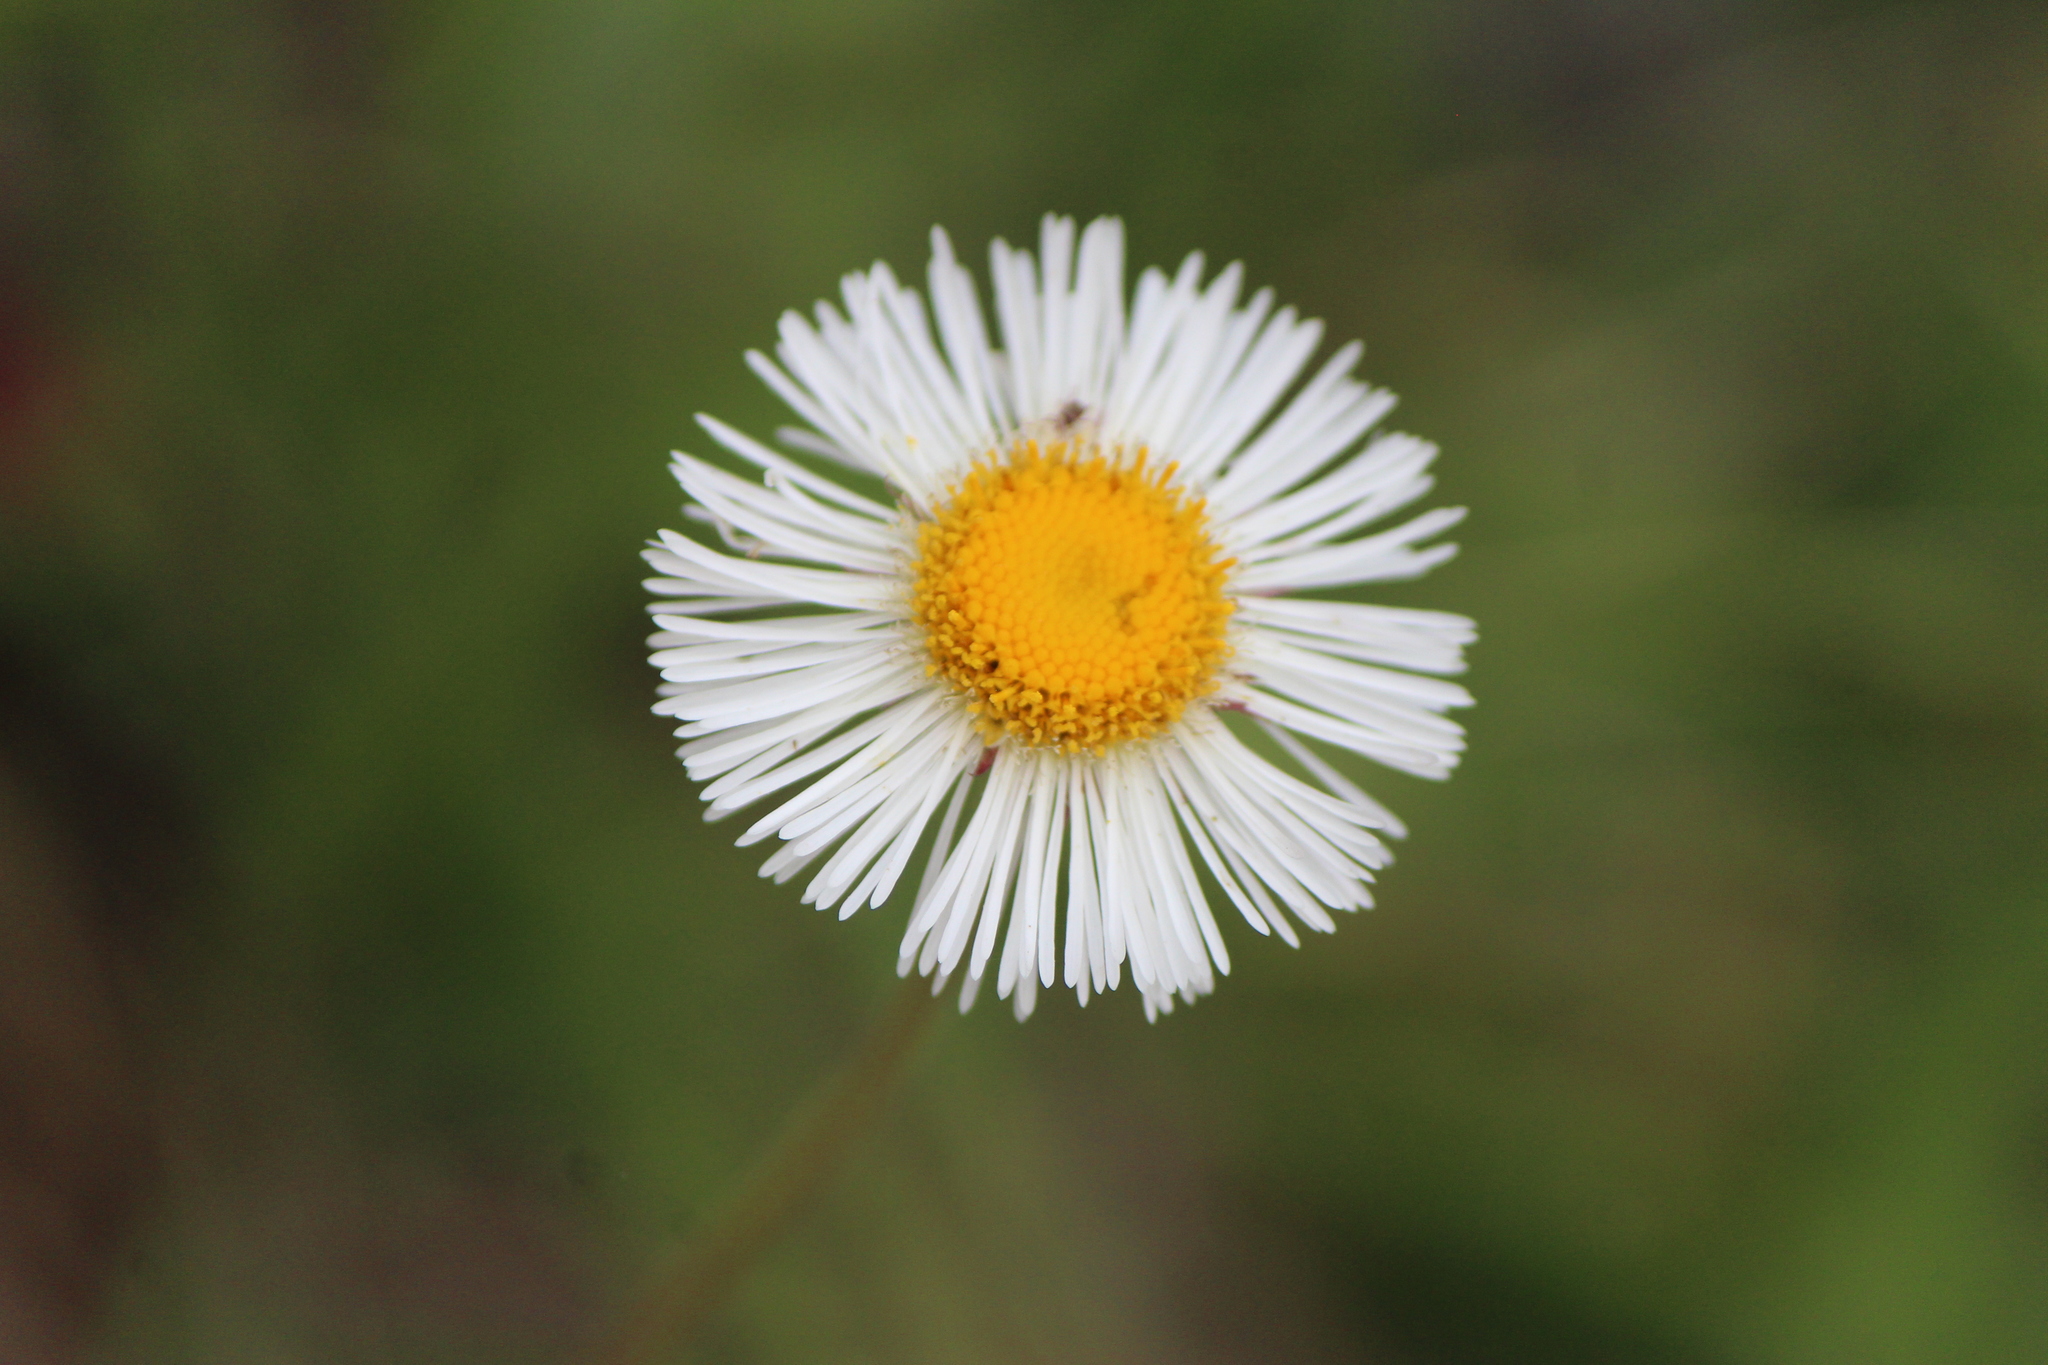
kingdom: Plantae
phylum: Tracheophyta
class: Magnoliopsida
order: Asterales
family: Asteraceae
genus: Erigeron
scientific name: Erigeron longipes
